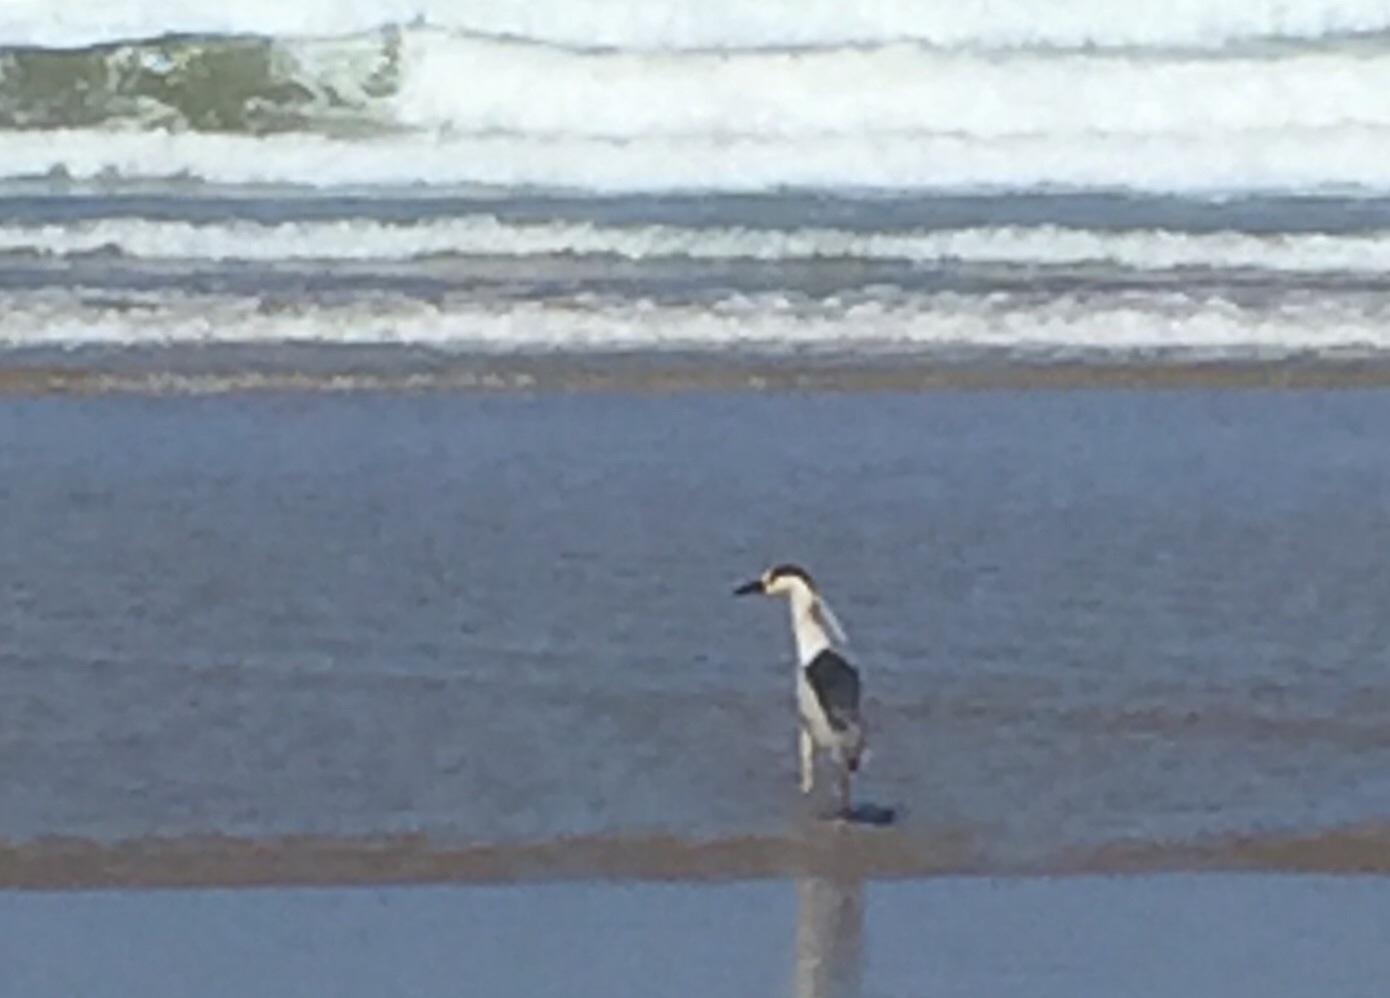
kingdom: Animalia
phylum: Chordata
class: Aves
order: Pelecaniformes
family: Ardeidae
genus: Nycticorax
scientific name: Nycticorax nycticorax
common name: Black-crowned night heron
